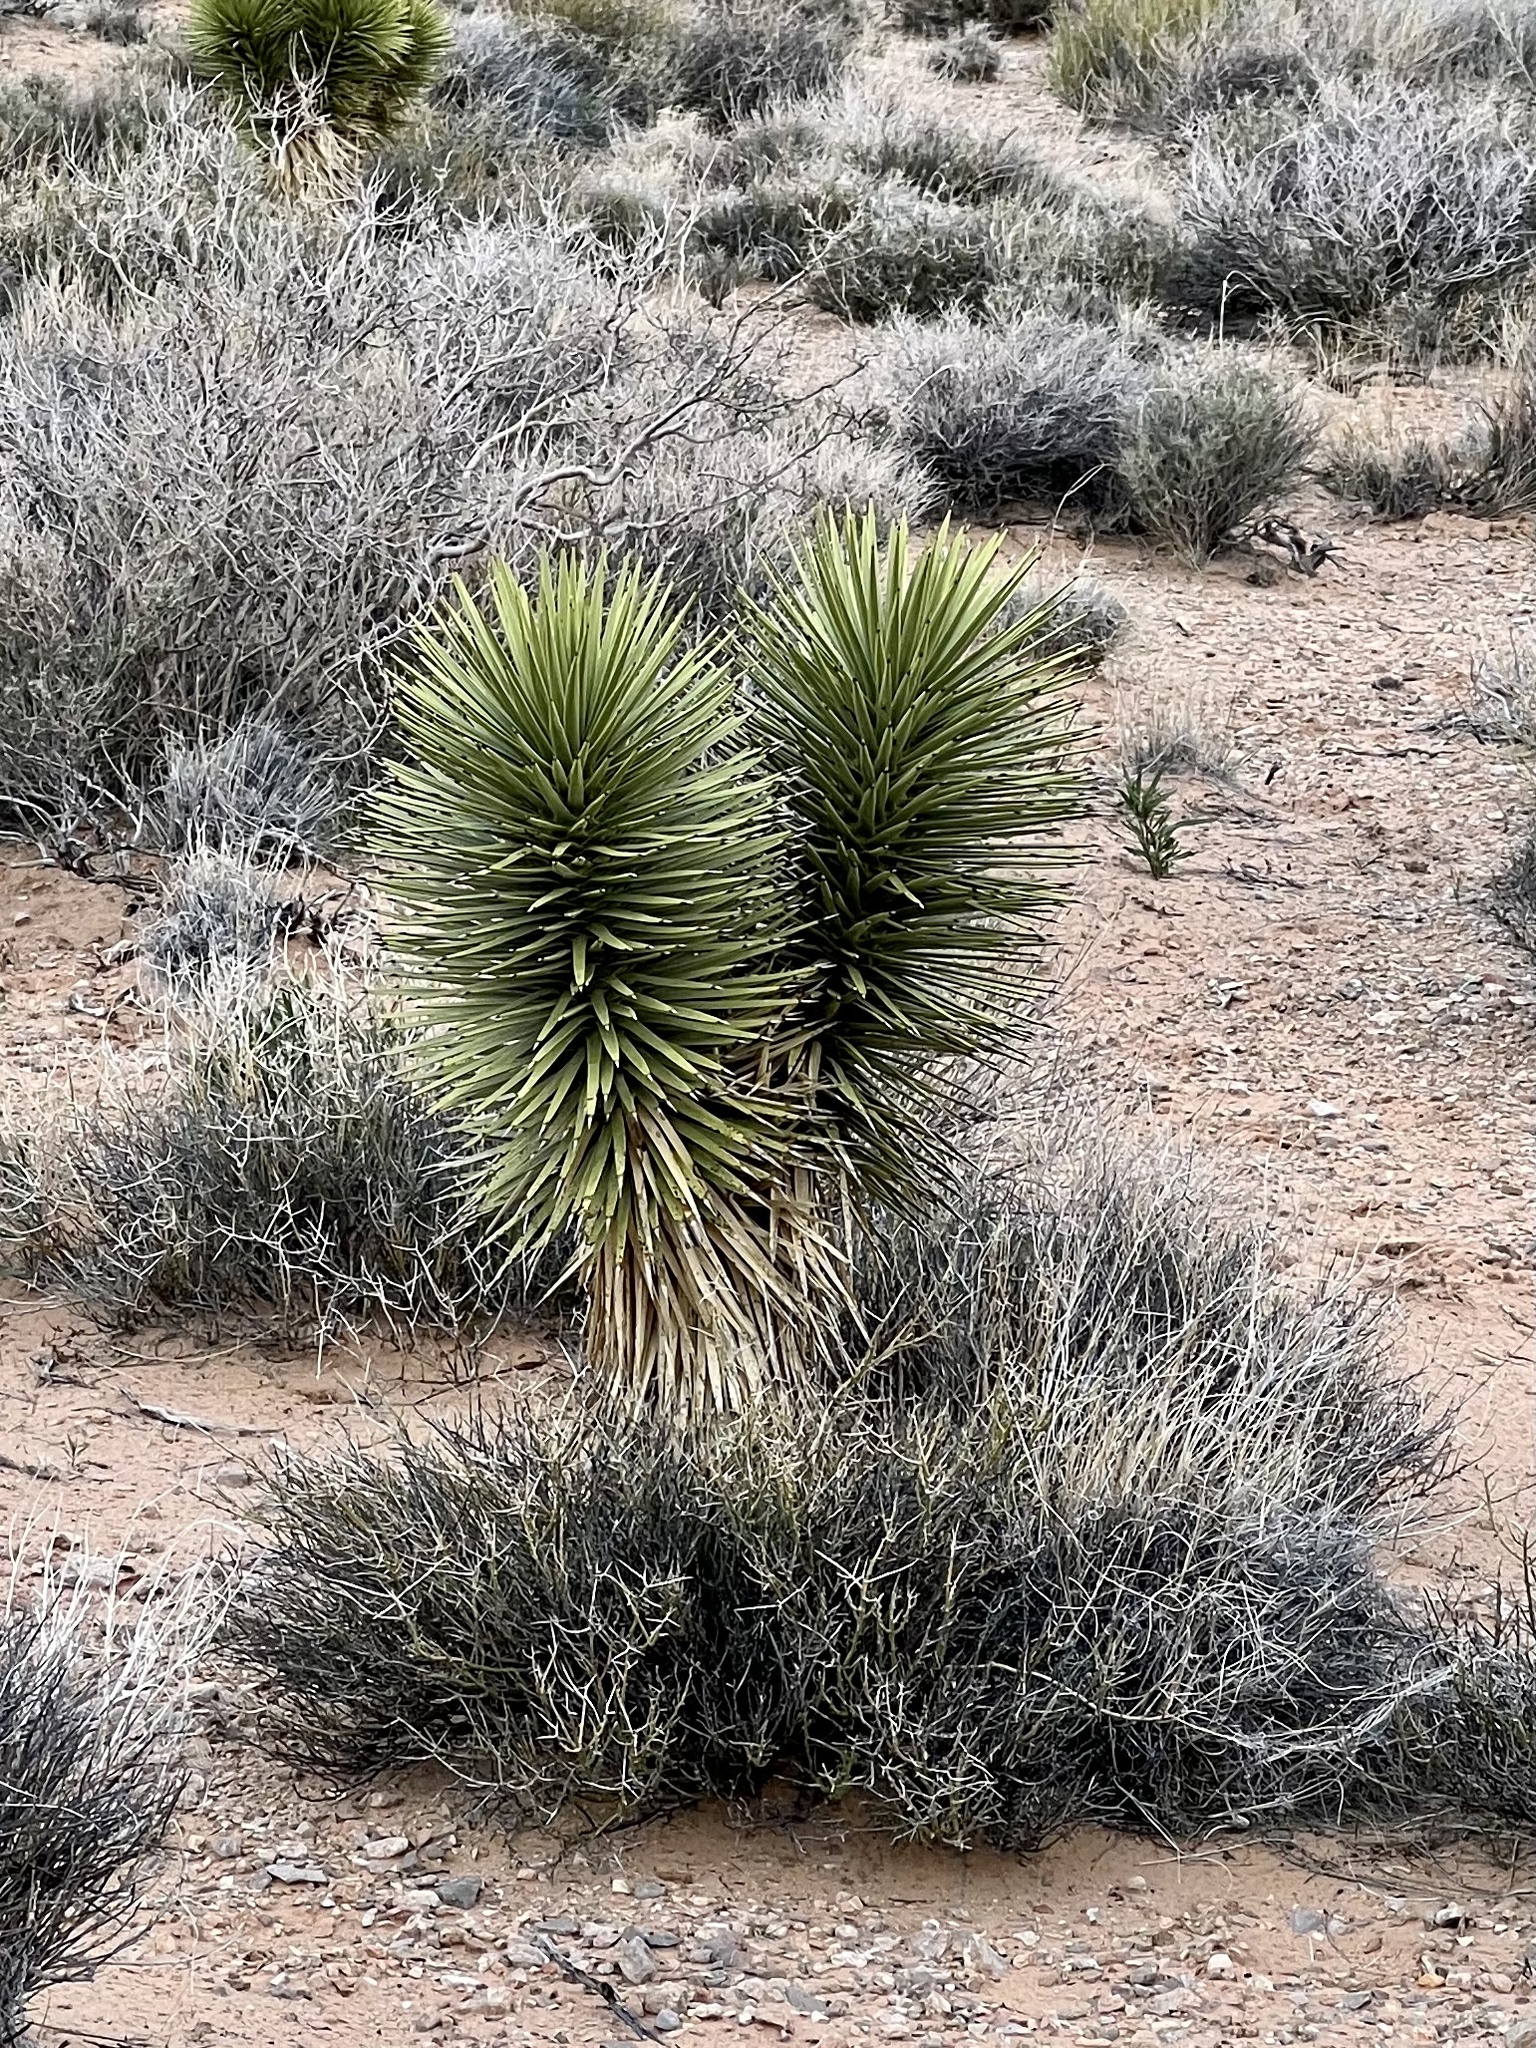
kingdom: Plantae
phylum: Tracheophyta
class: Liliopsida
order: Asparagales
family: Asparagaceae
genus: Yucca
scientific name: Yucca brevifolia
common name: Joshua tree
